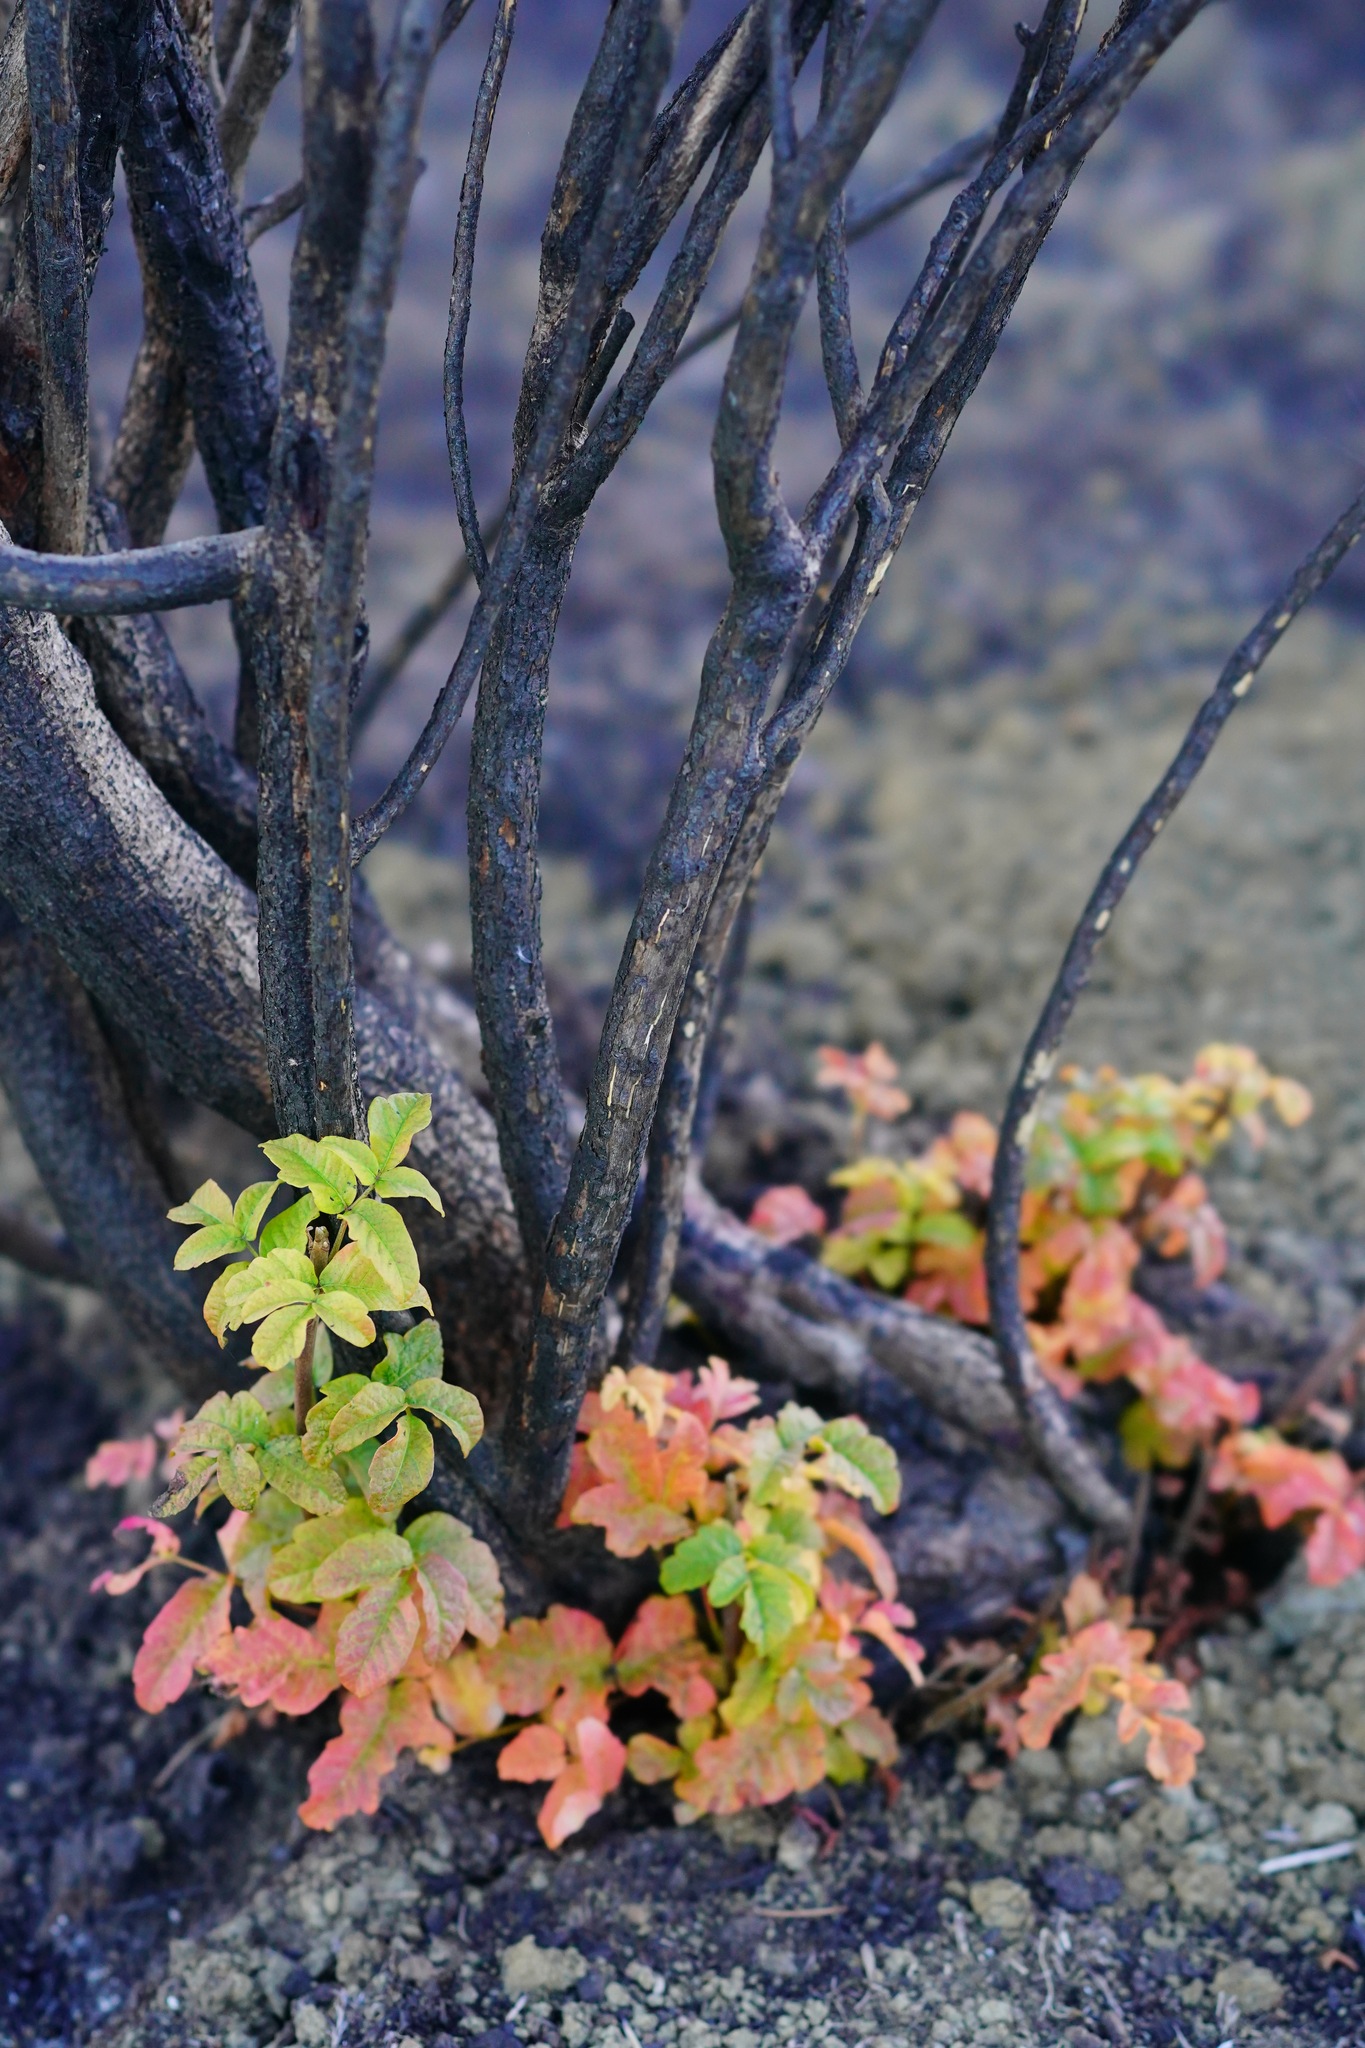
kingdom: Plantae
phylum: Tracheophyta
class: Magnoliopsida
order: Sapindales
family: Anacardiaceae
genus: Toxicodendron
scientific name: Toxicodendron diversilobum
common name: Pacific poison-oak
